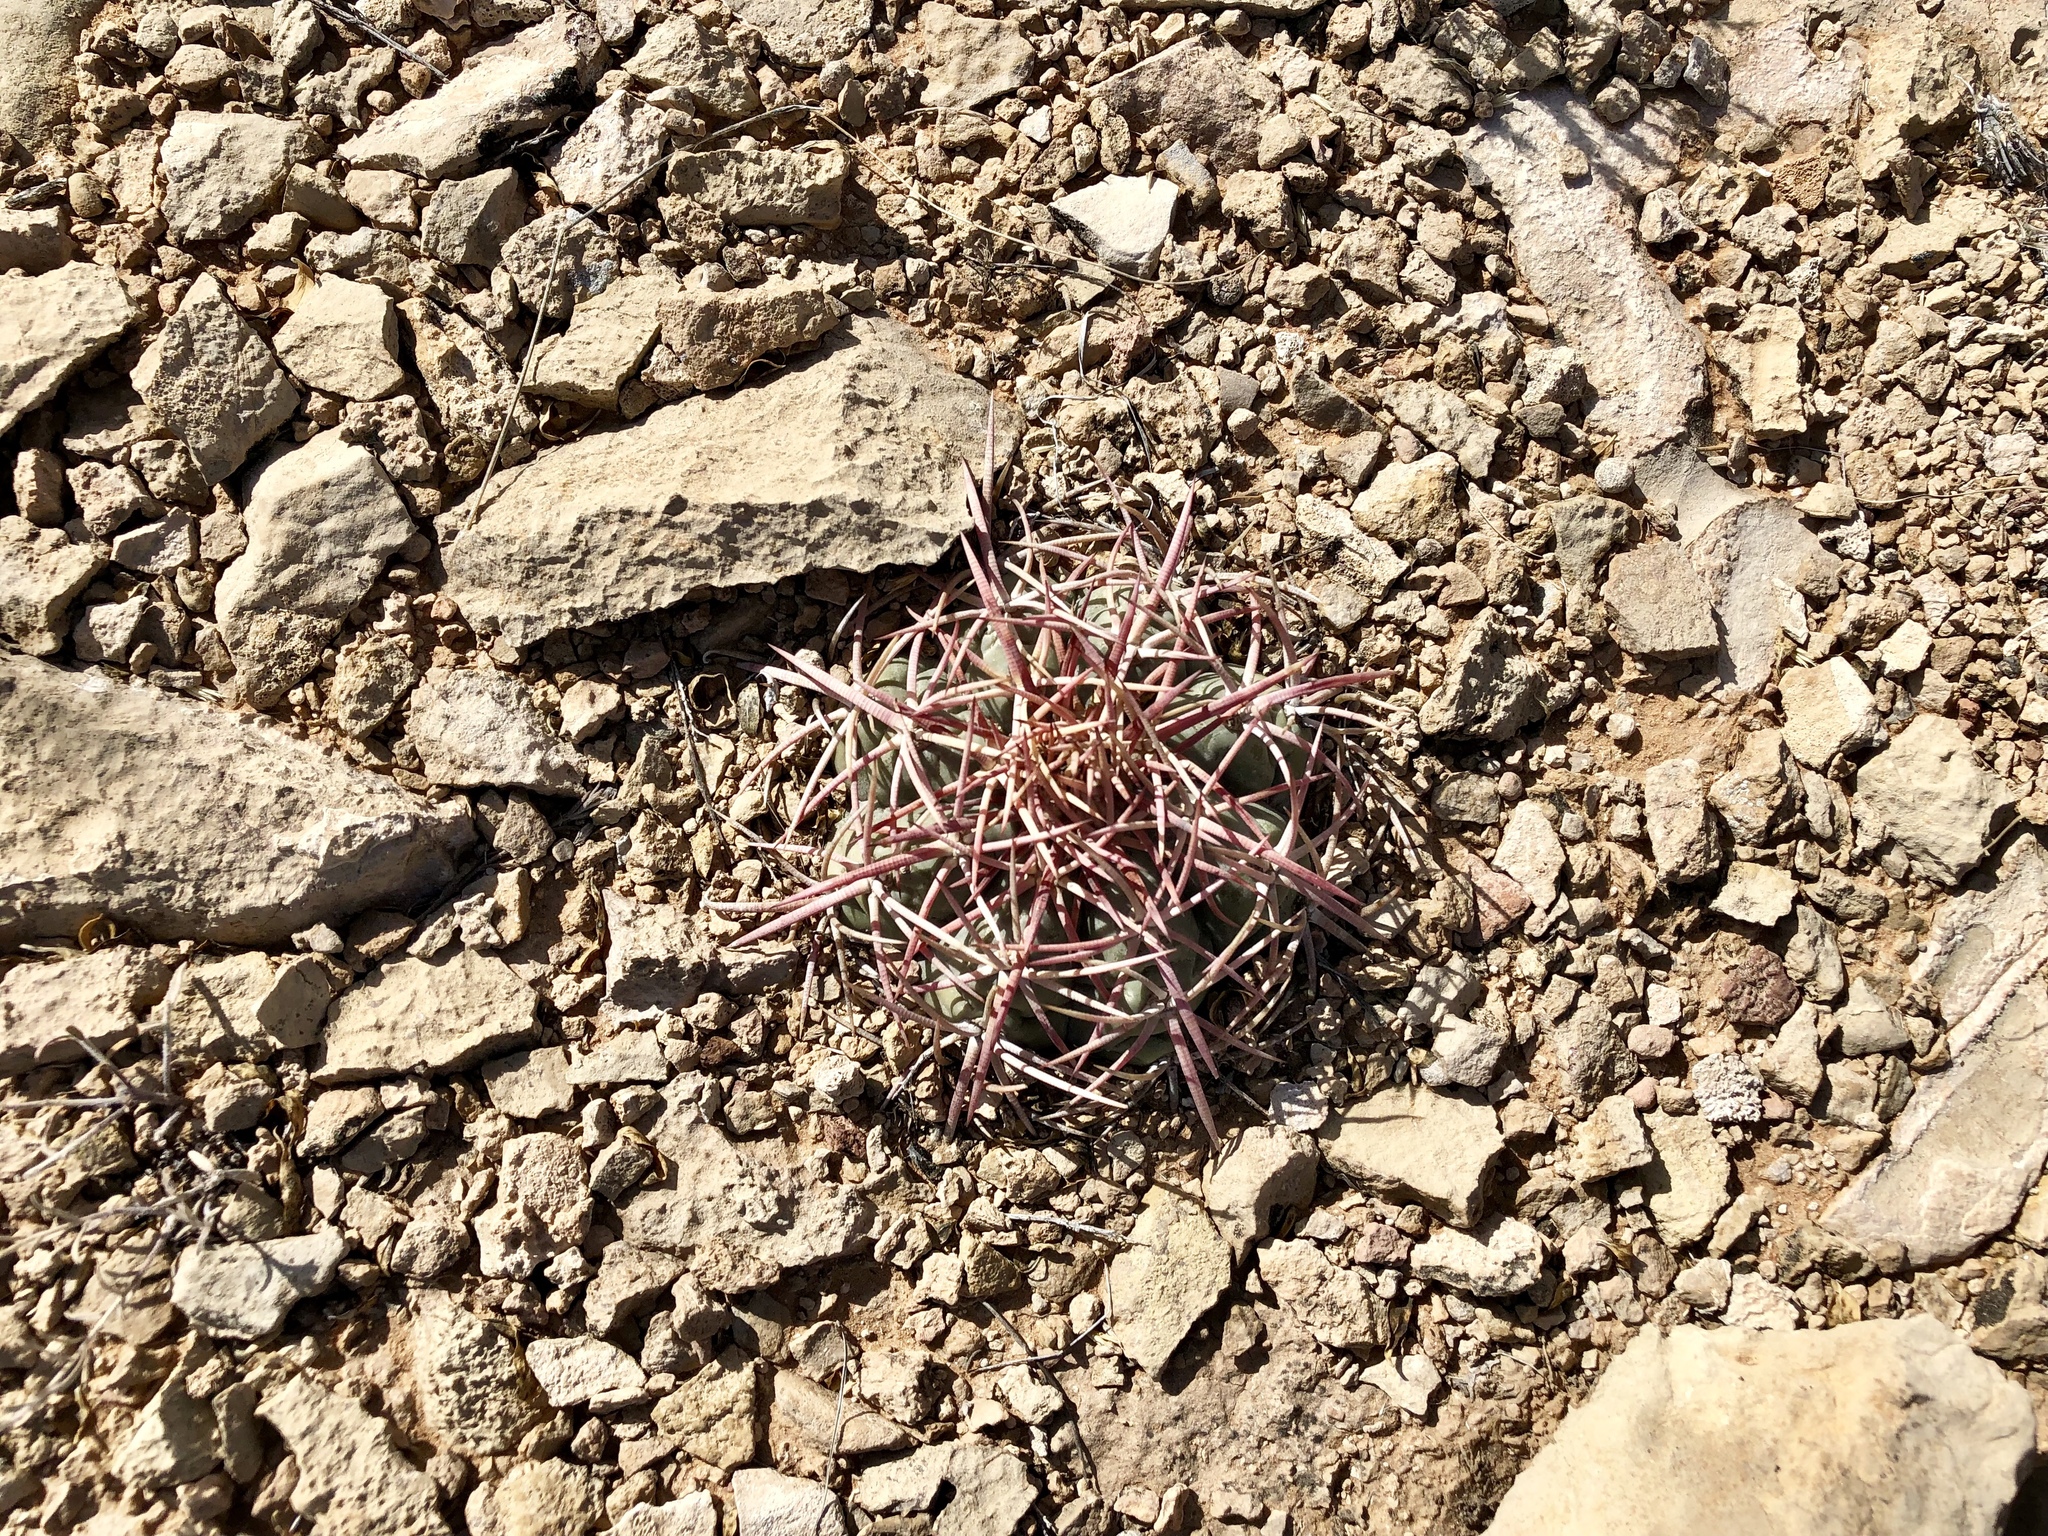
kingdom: Plantae
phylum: Tracheophyta
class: Magnoliopsida
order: Caryophyllales
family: Cactaceae
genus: Echinocactus
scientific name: Echinocactus horizonthalonius
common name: Devilshead
